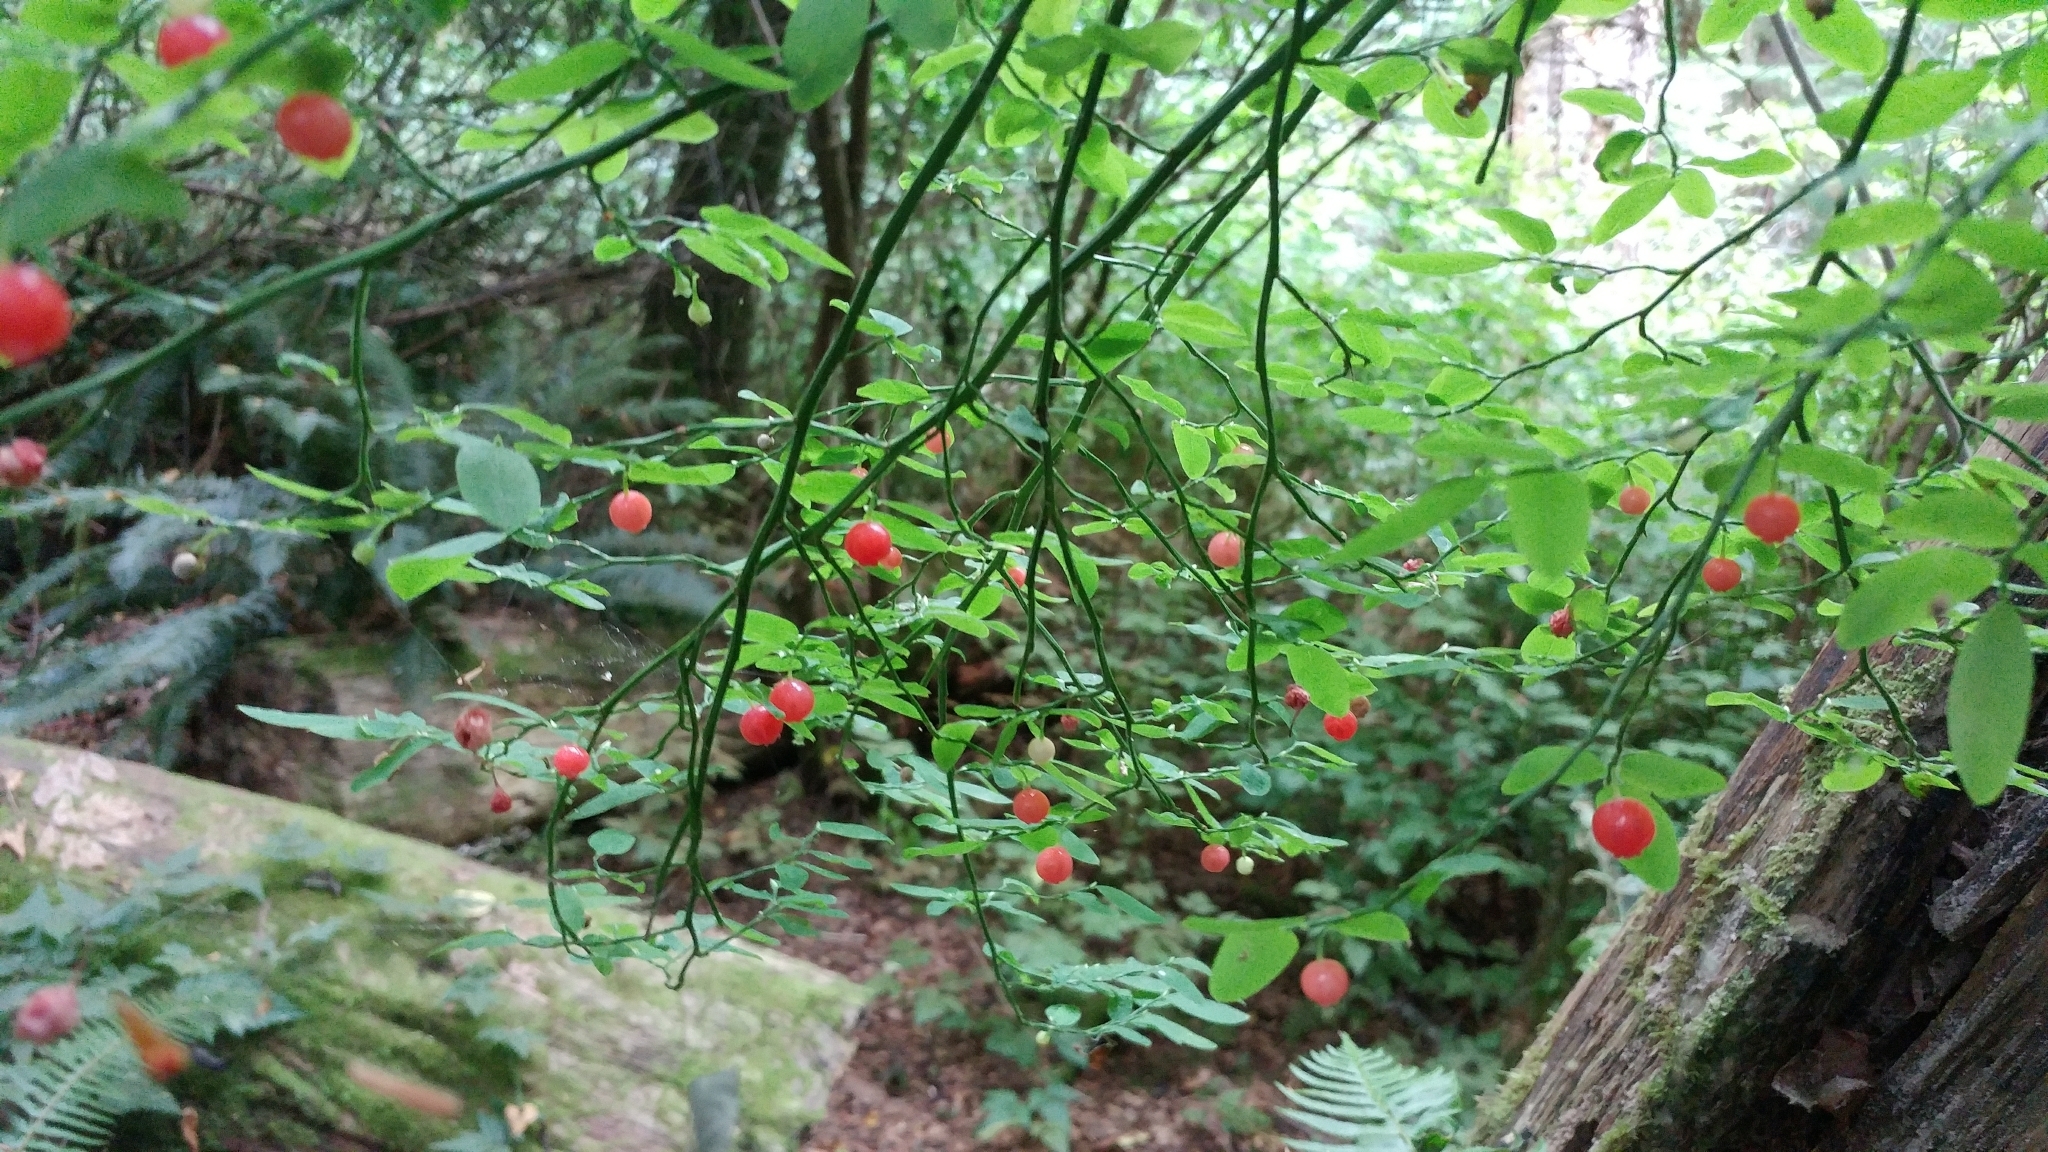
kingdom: Plantae
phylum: Tracheophyta
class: Magnoliopsida
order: Ericales
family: Ericaceae
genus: Vaccinium
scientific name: Vaccinium parvifolium
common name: Red-huckleberry
